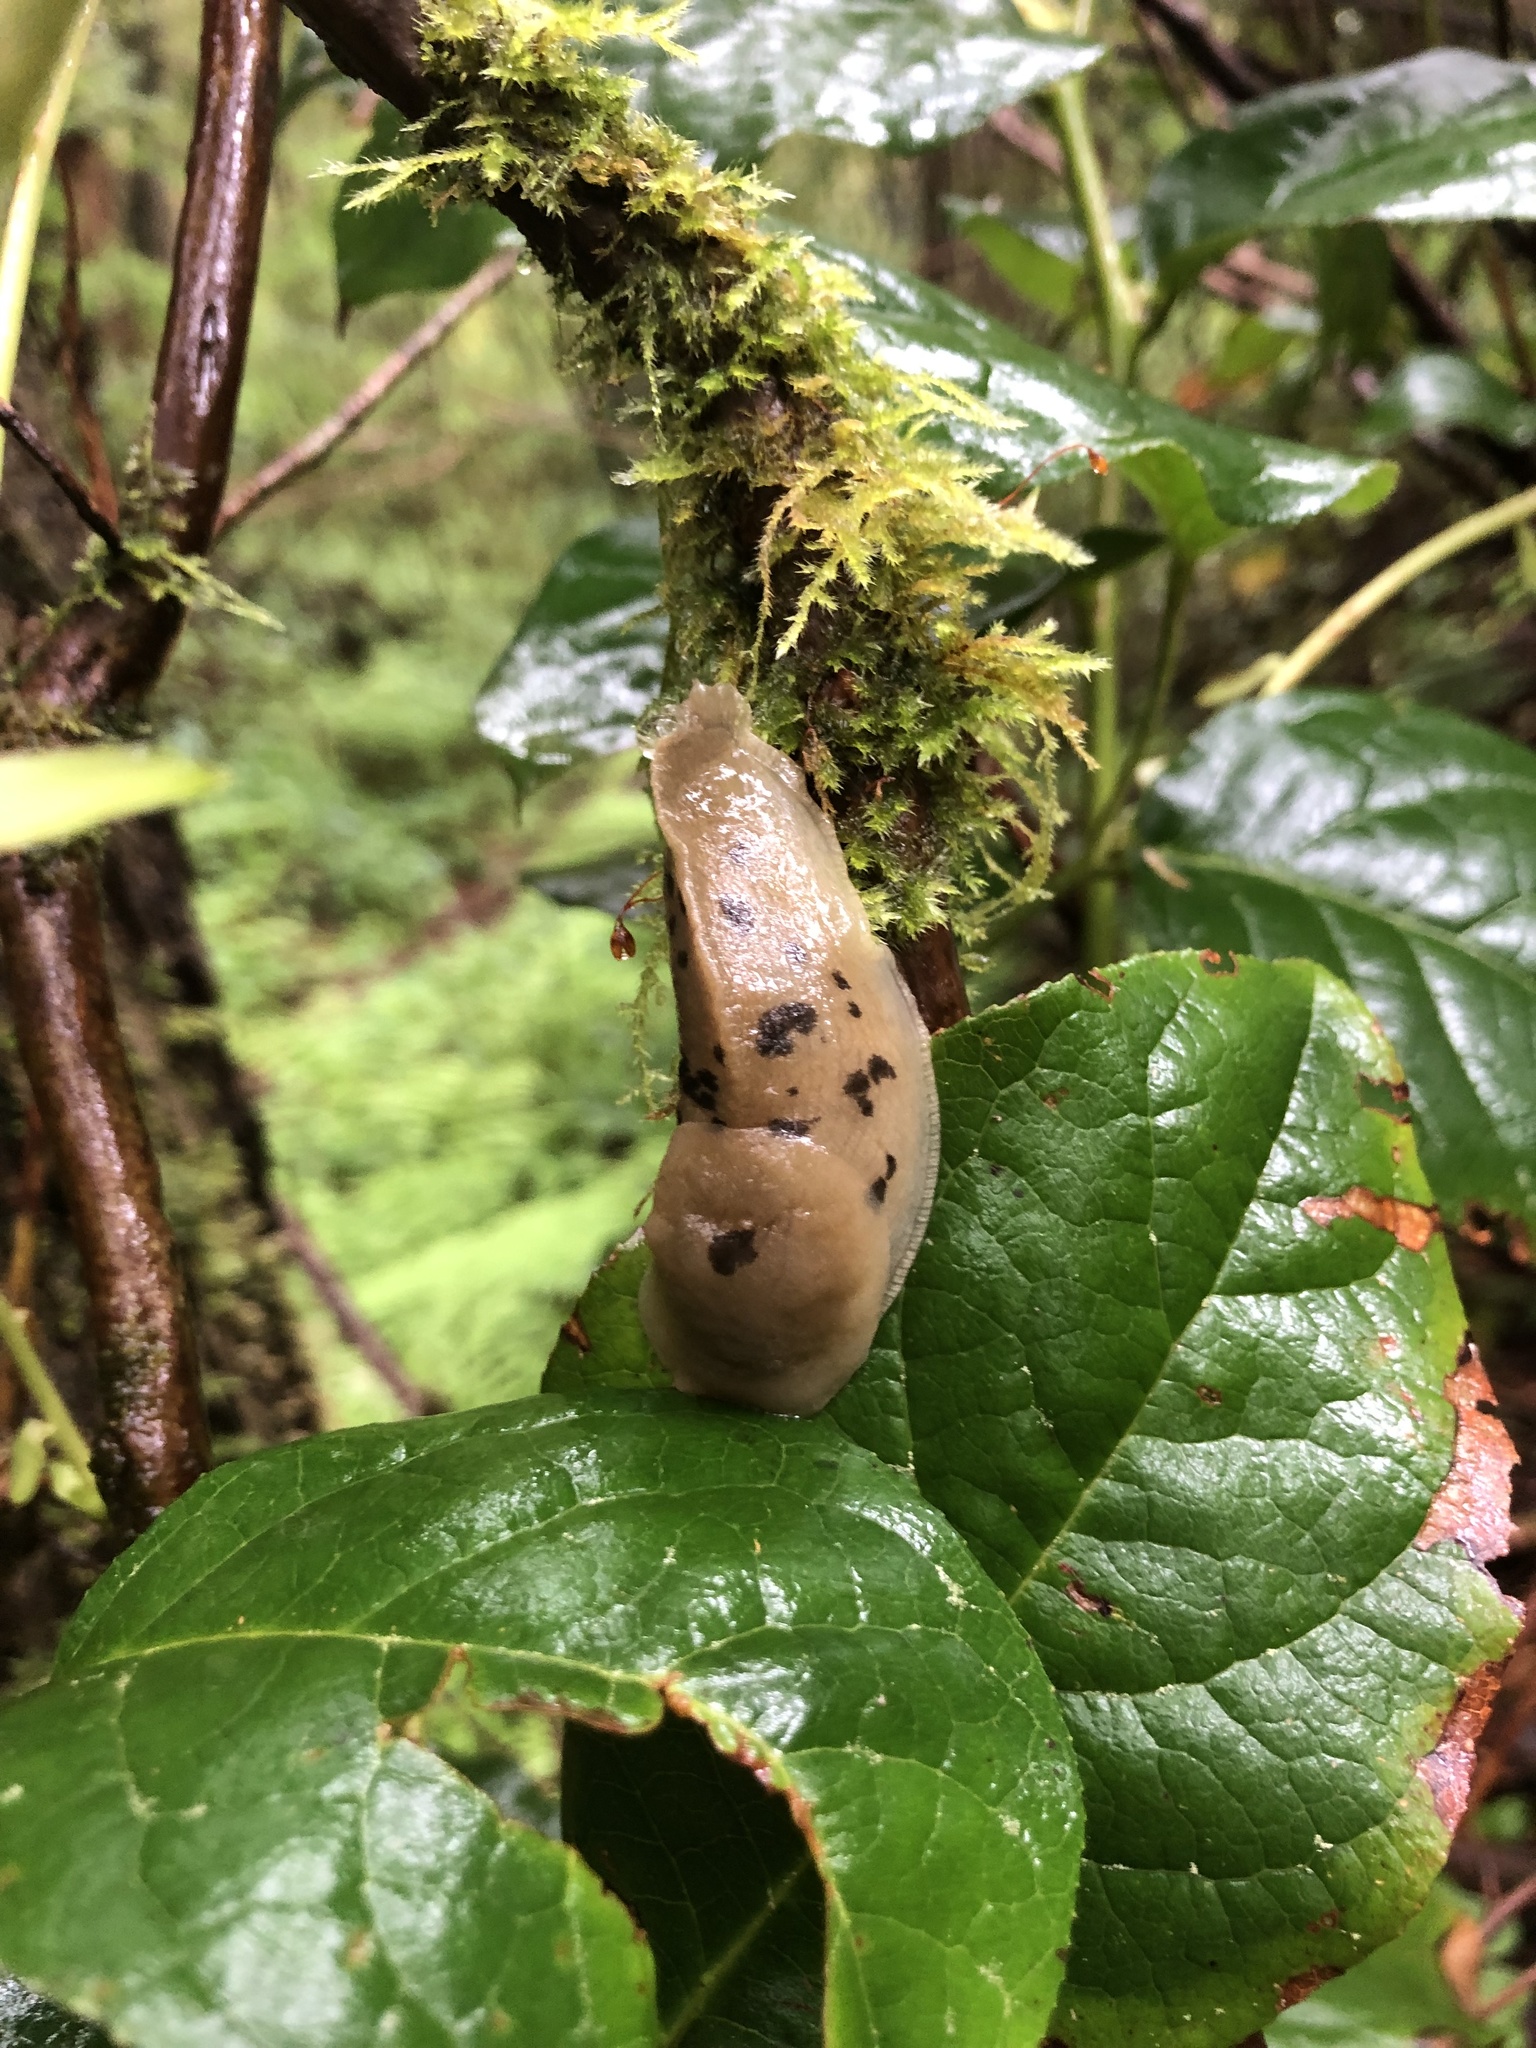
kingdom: Animalia
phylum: Mollusca
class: Gastropoda
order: Stylommatophora
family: Ariolimacidae
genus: Ariolimax
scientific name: Ariolimax columbianus
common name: Pacific banana slug
